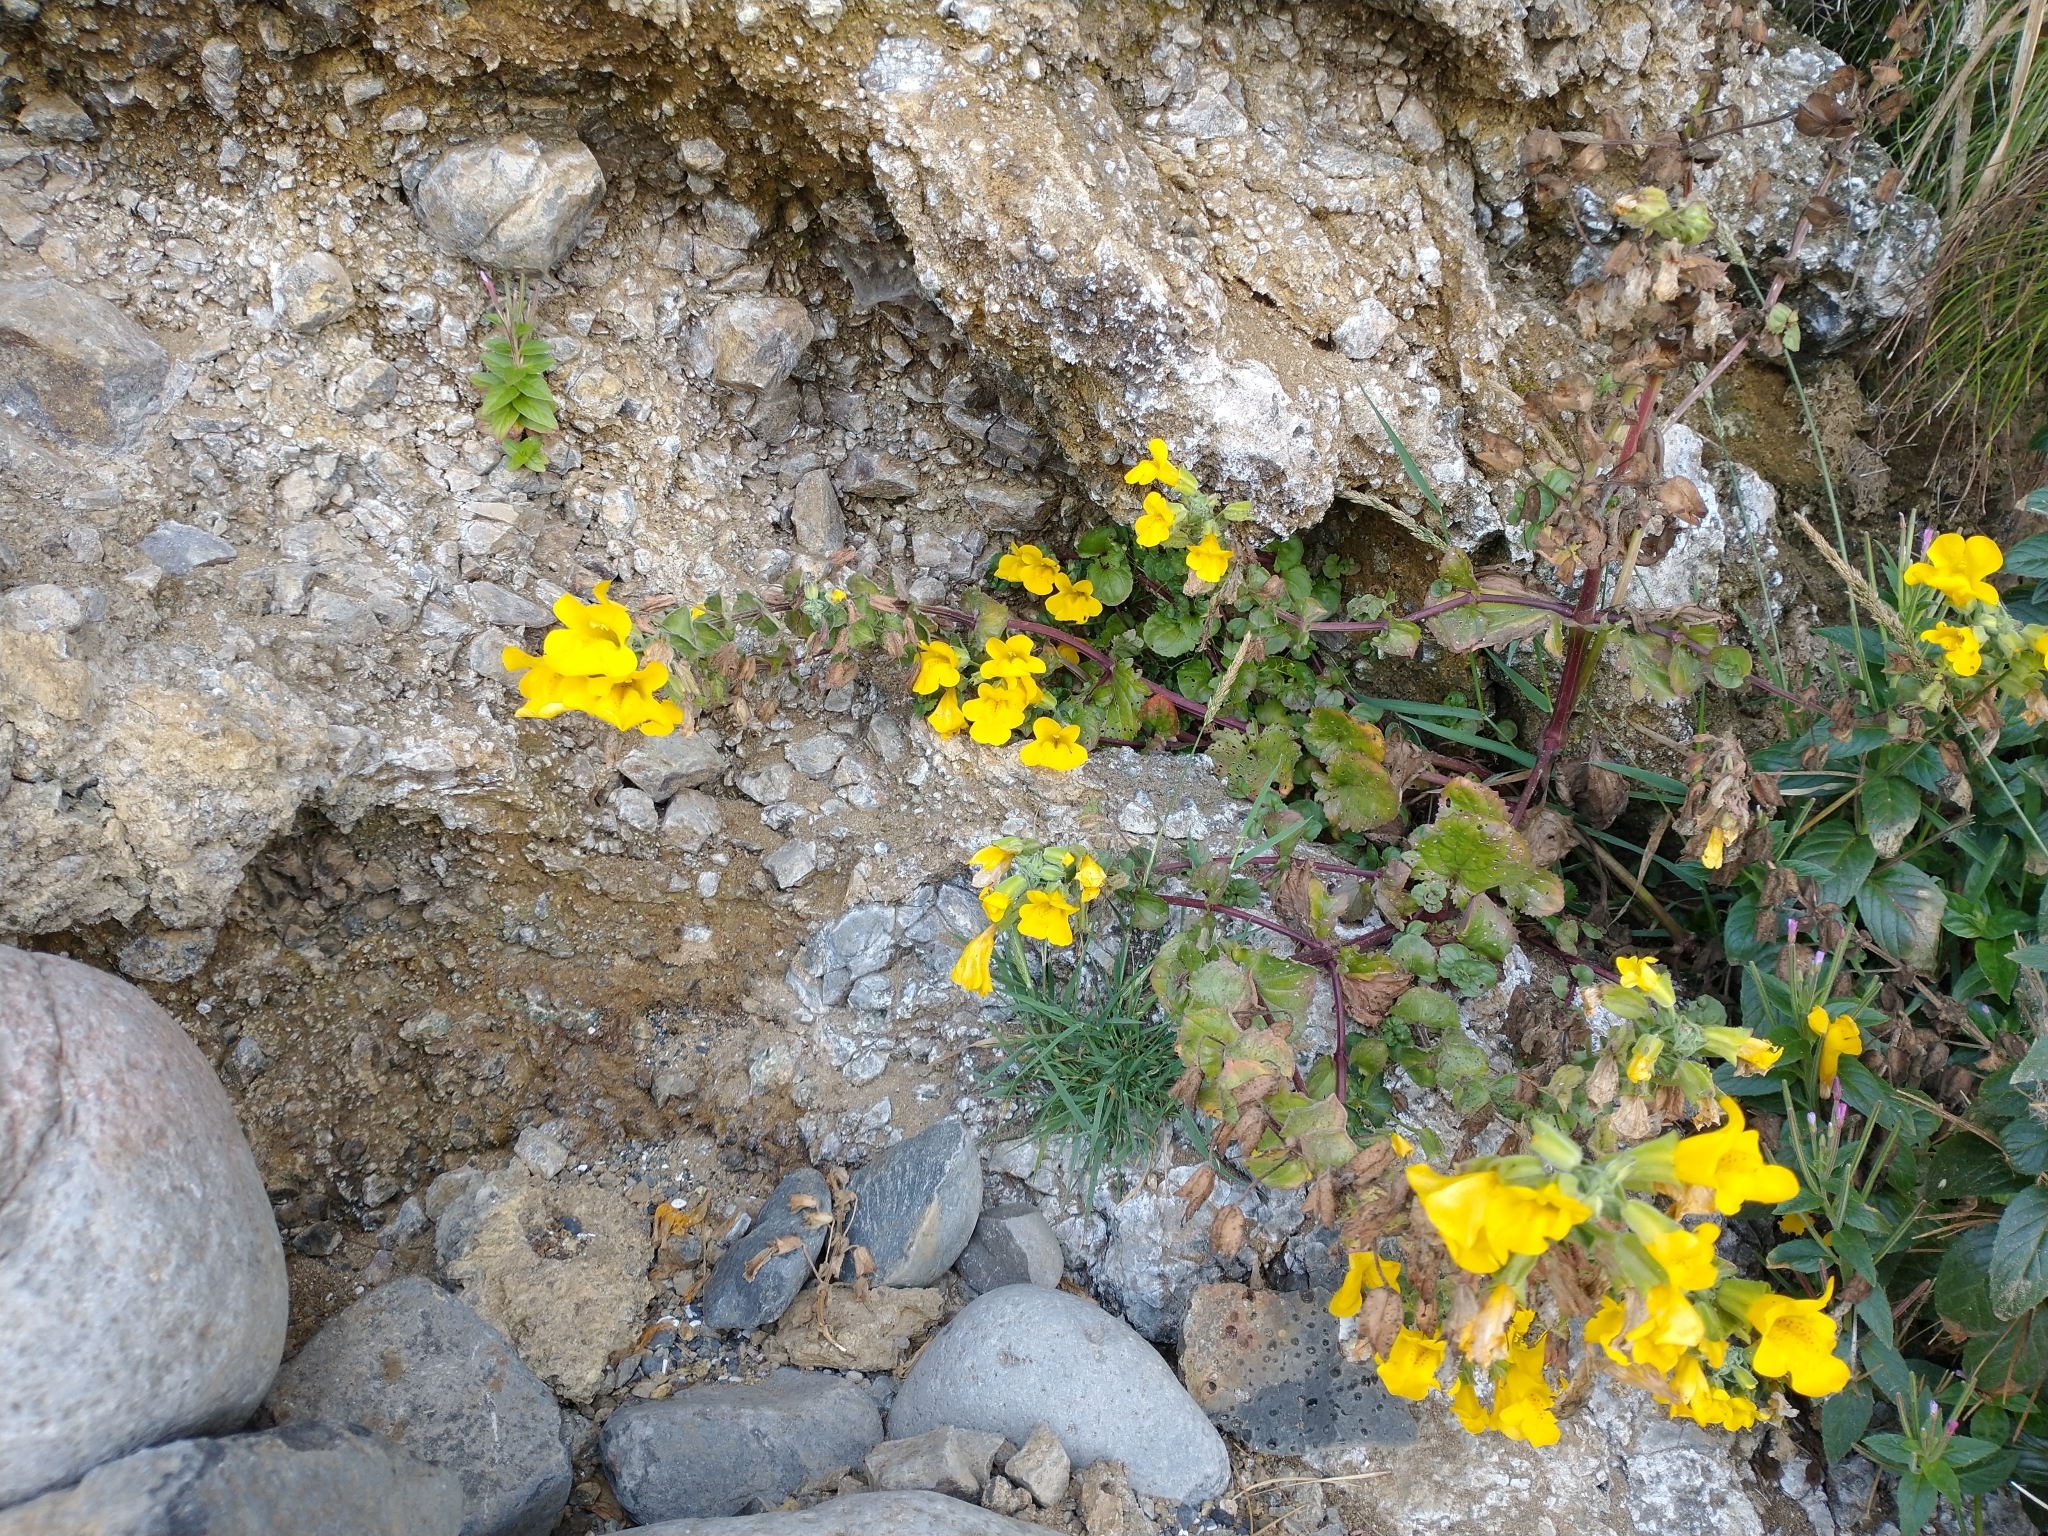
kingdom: Plantae
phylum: Tracheophyta
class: Magnoliopsida
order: Lamiales
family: Phrymaceae
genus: Erythranthe
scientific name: Erythranthe grandis
